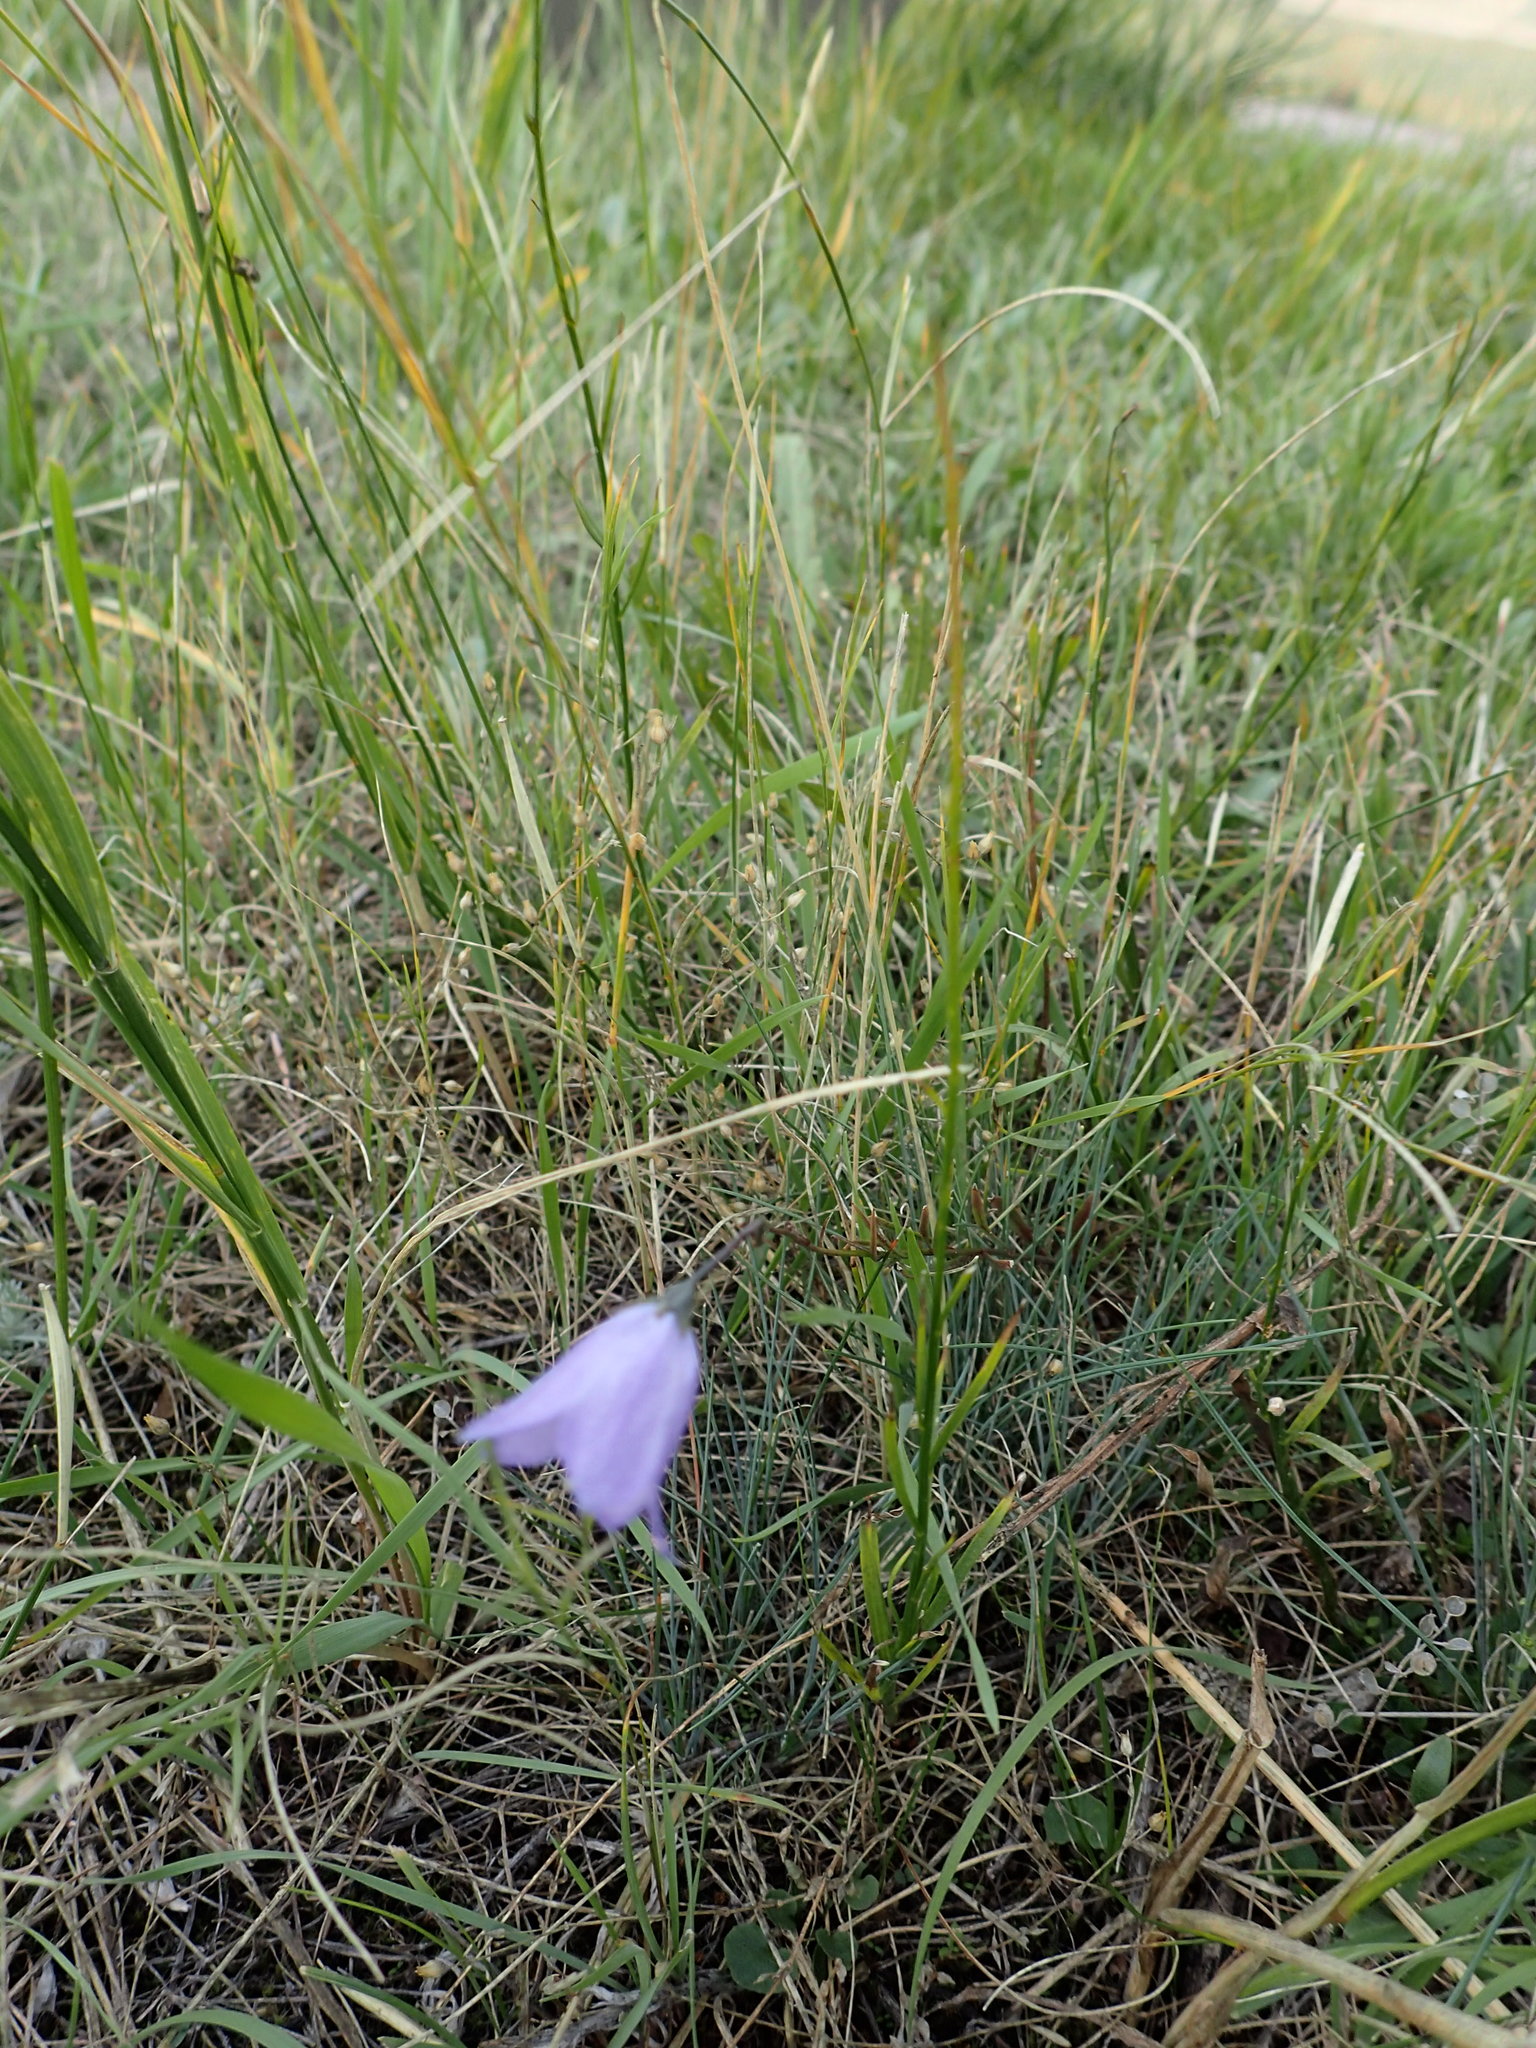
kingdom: Plantae
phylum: Tracheophyta
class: Magnoliopsida
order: Asterales
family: Campanulaceae
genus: Campanula
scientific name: Campanula alaskana
